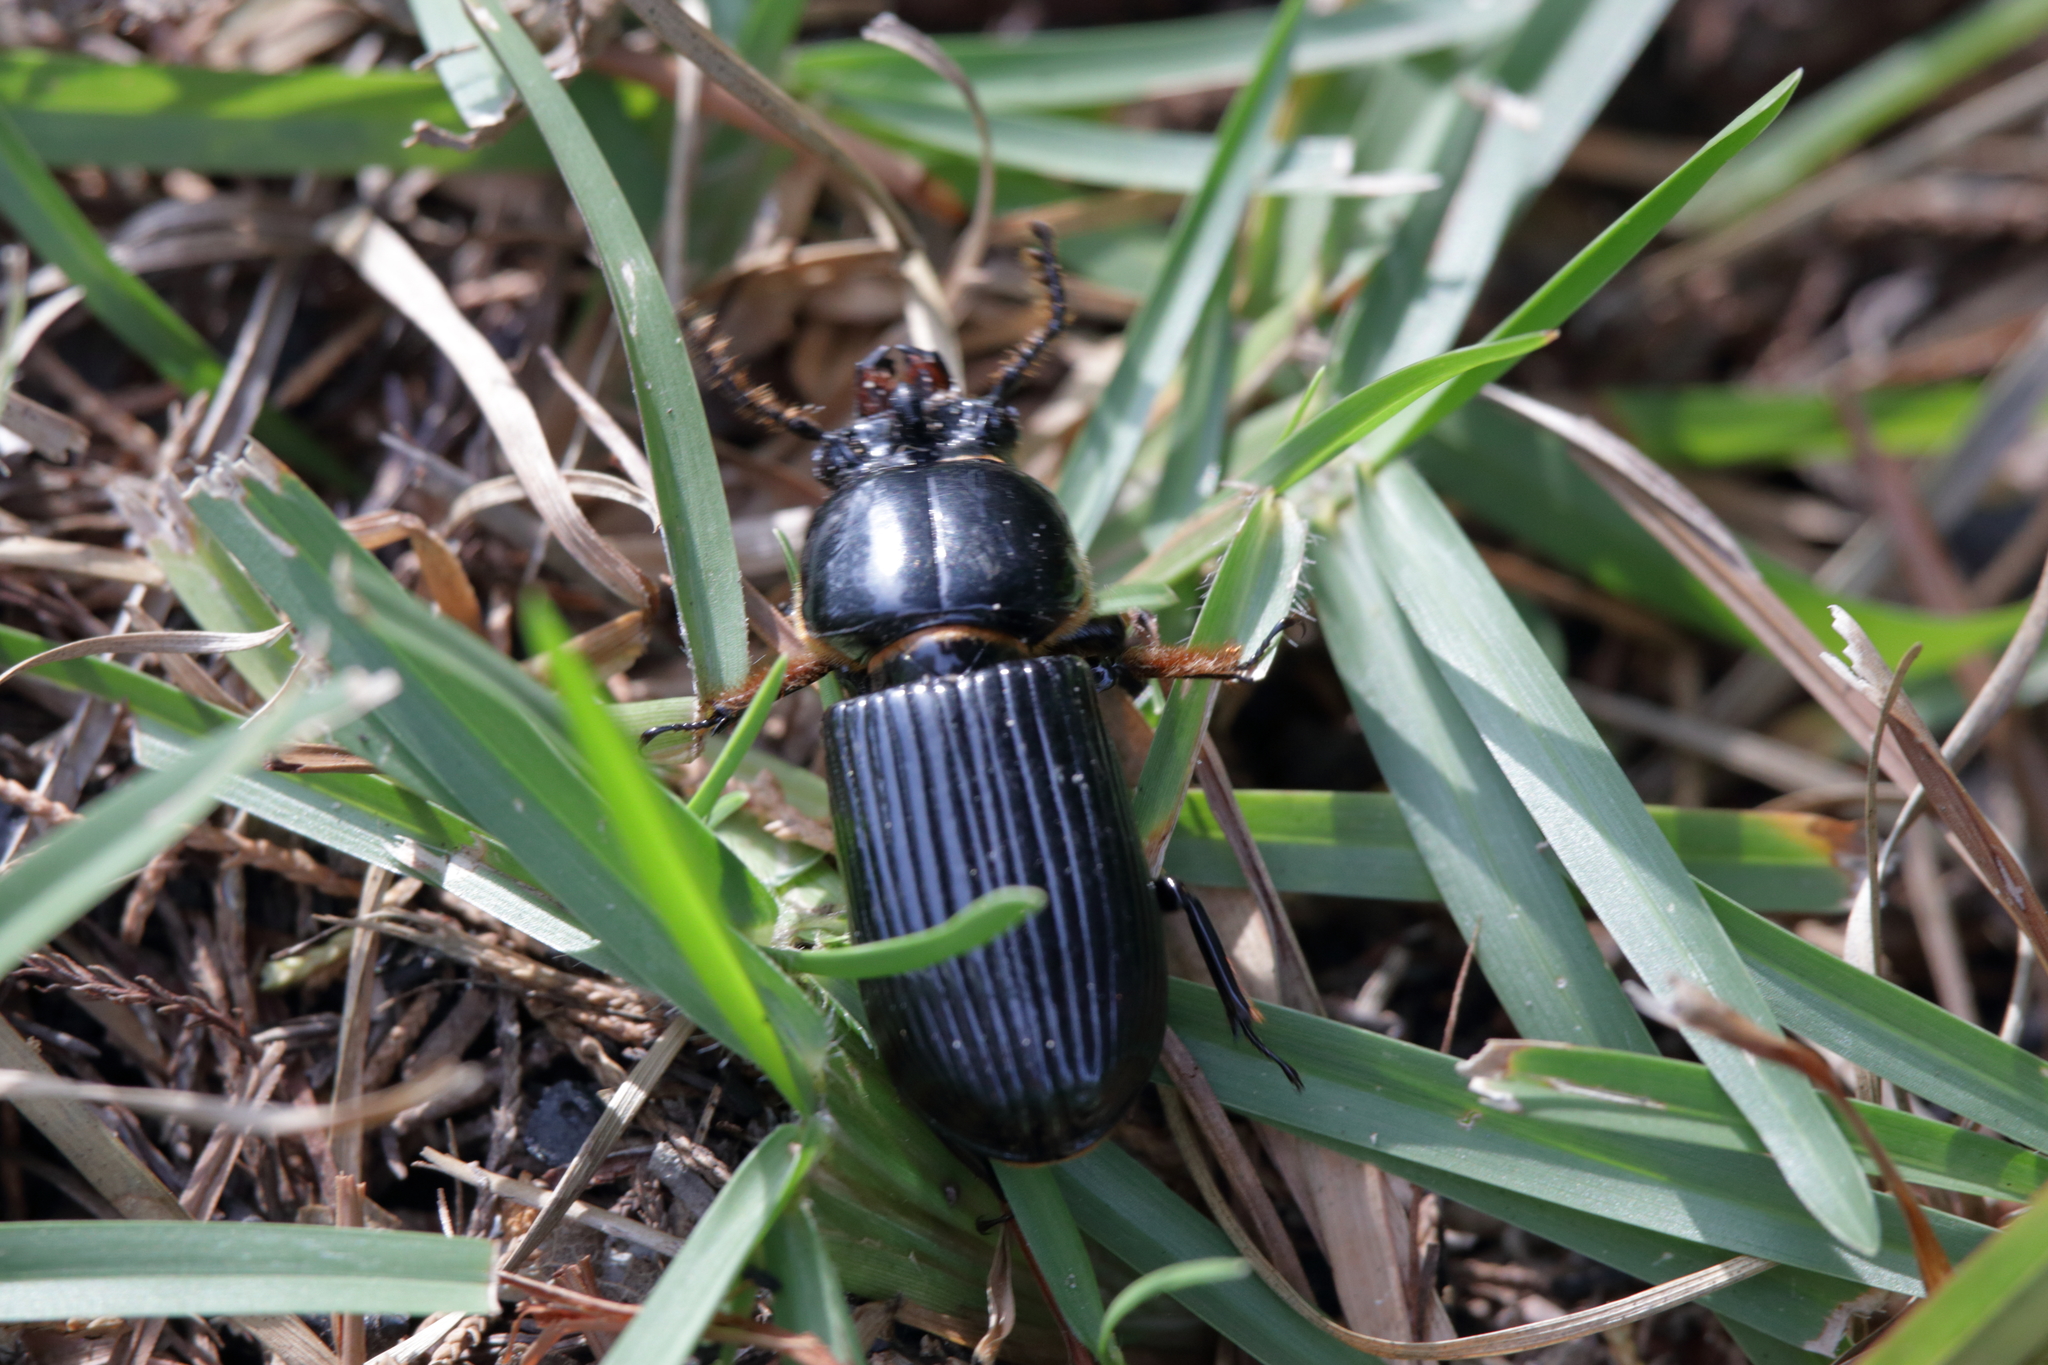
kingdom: Animalia
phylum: Arthropoda
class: Insecta
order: Coleoptera
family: Passalidae
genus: Odontotaenius
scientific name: Odontotaenius disjunctus
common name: Patent leather beetle
